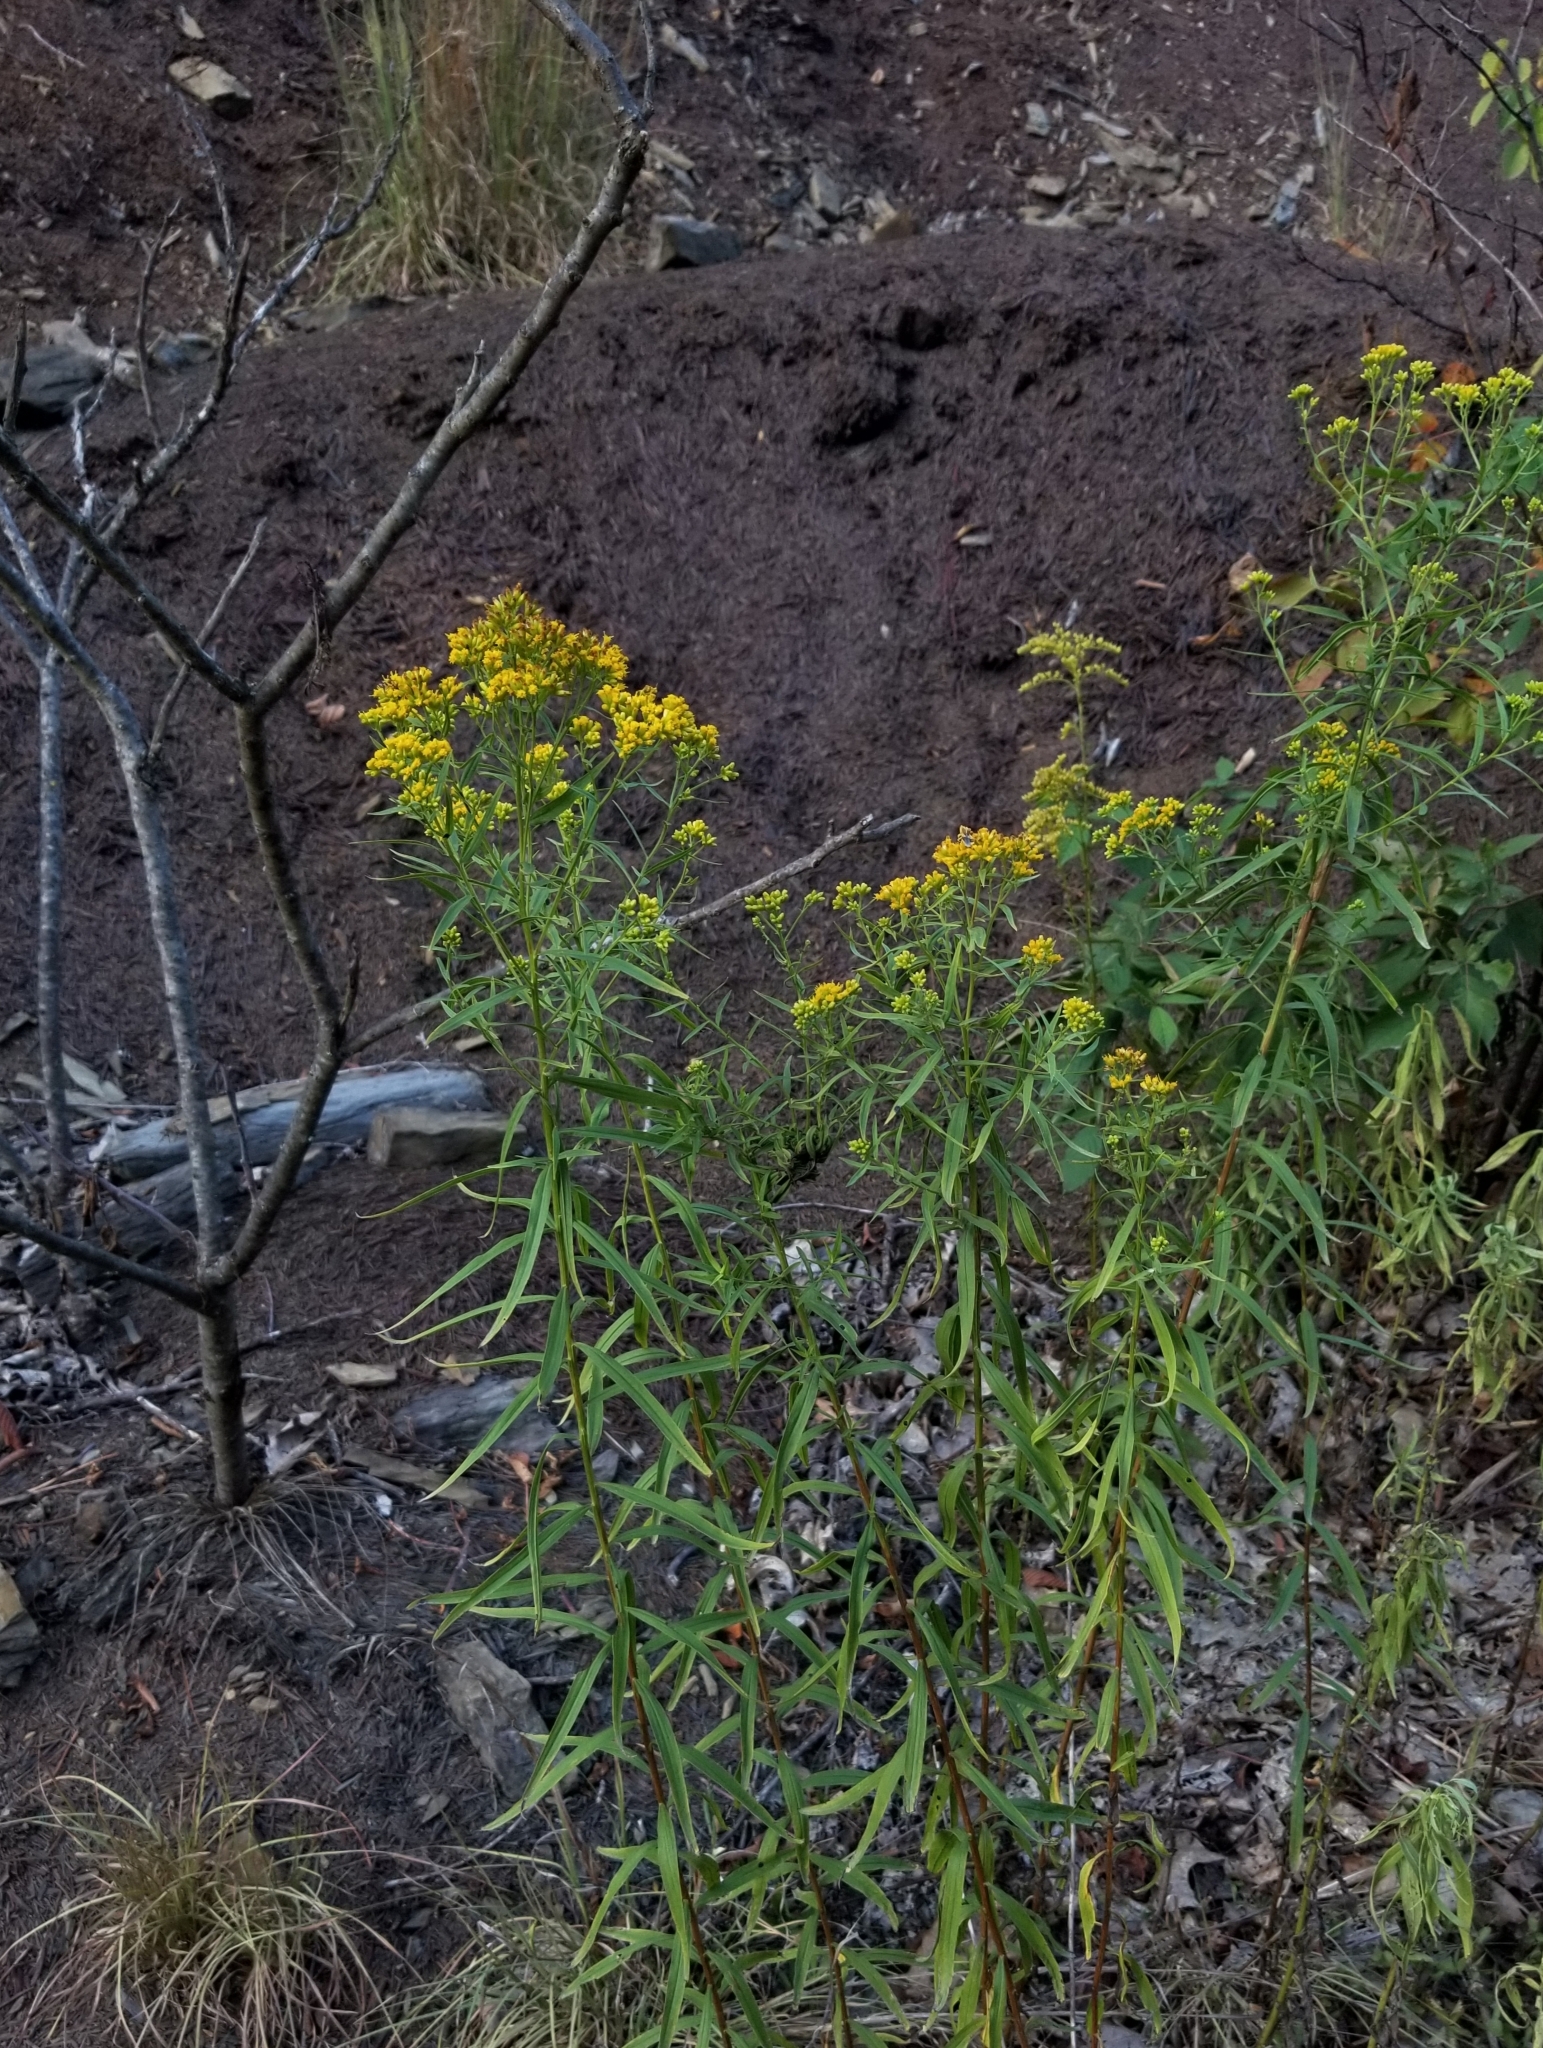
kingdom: Plantae
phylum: Tracheophyta
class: Magnoliopsida
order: Asterales
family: Asteraceae
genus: Euthamia
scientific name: Euthamia graminifolia
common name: Common goldentop
